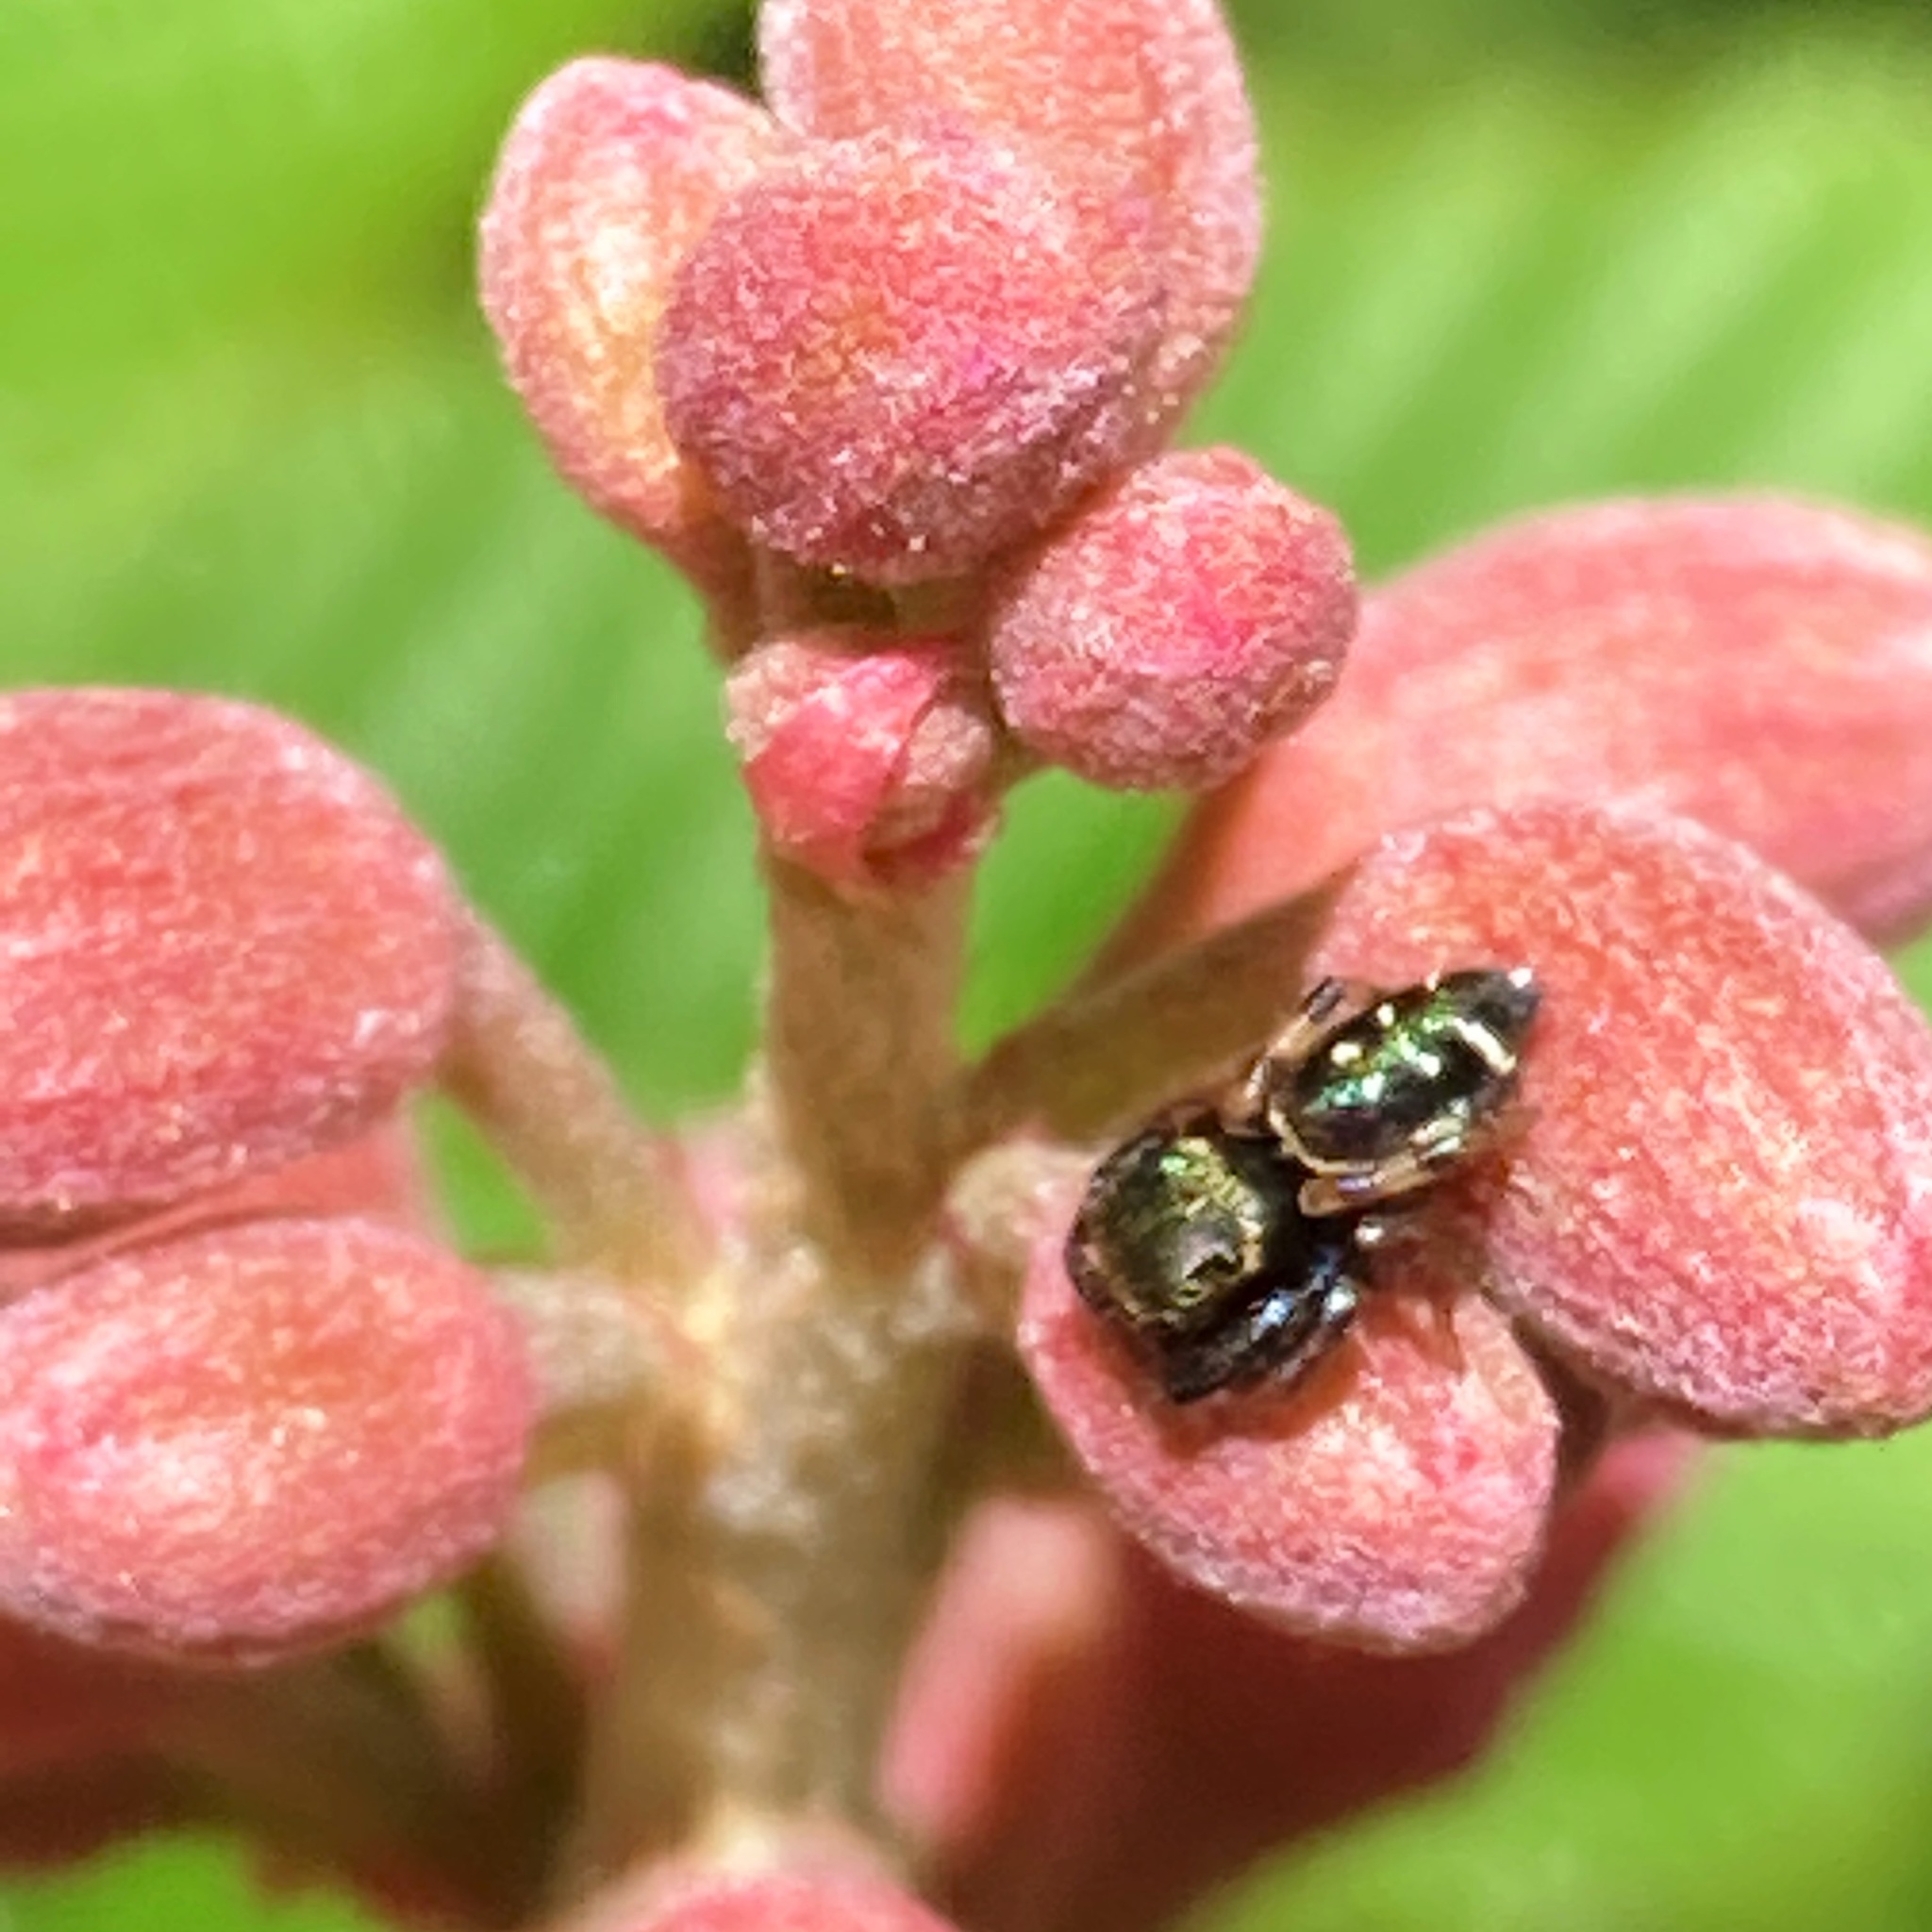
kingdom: Animalia
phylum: Arthropoda
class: Arachnida
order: Araneae
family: Salticidae
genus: Paraphidippus
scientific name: Paraphidippus aurantius
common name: Jumping spiders
